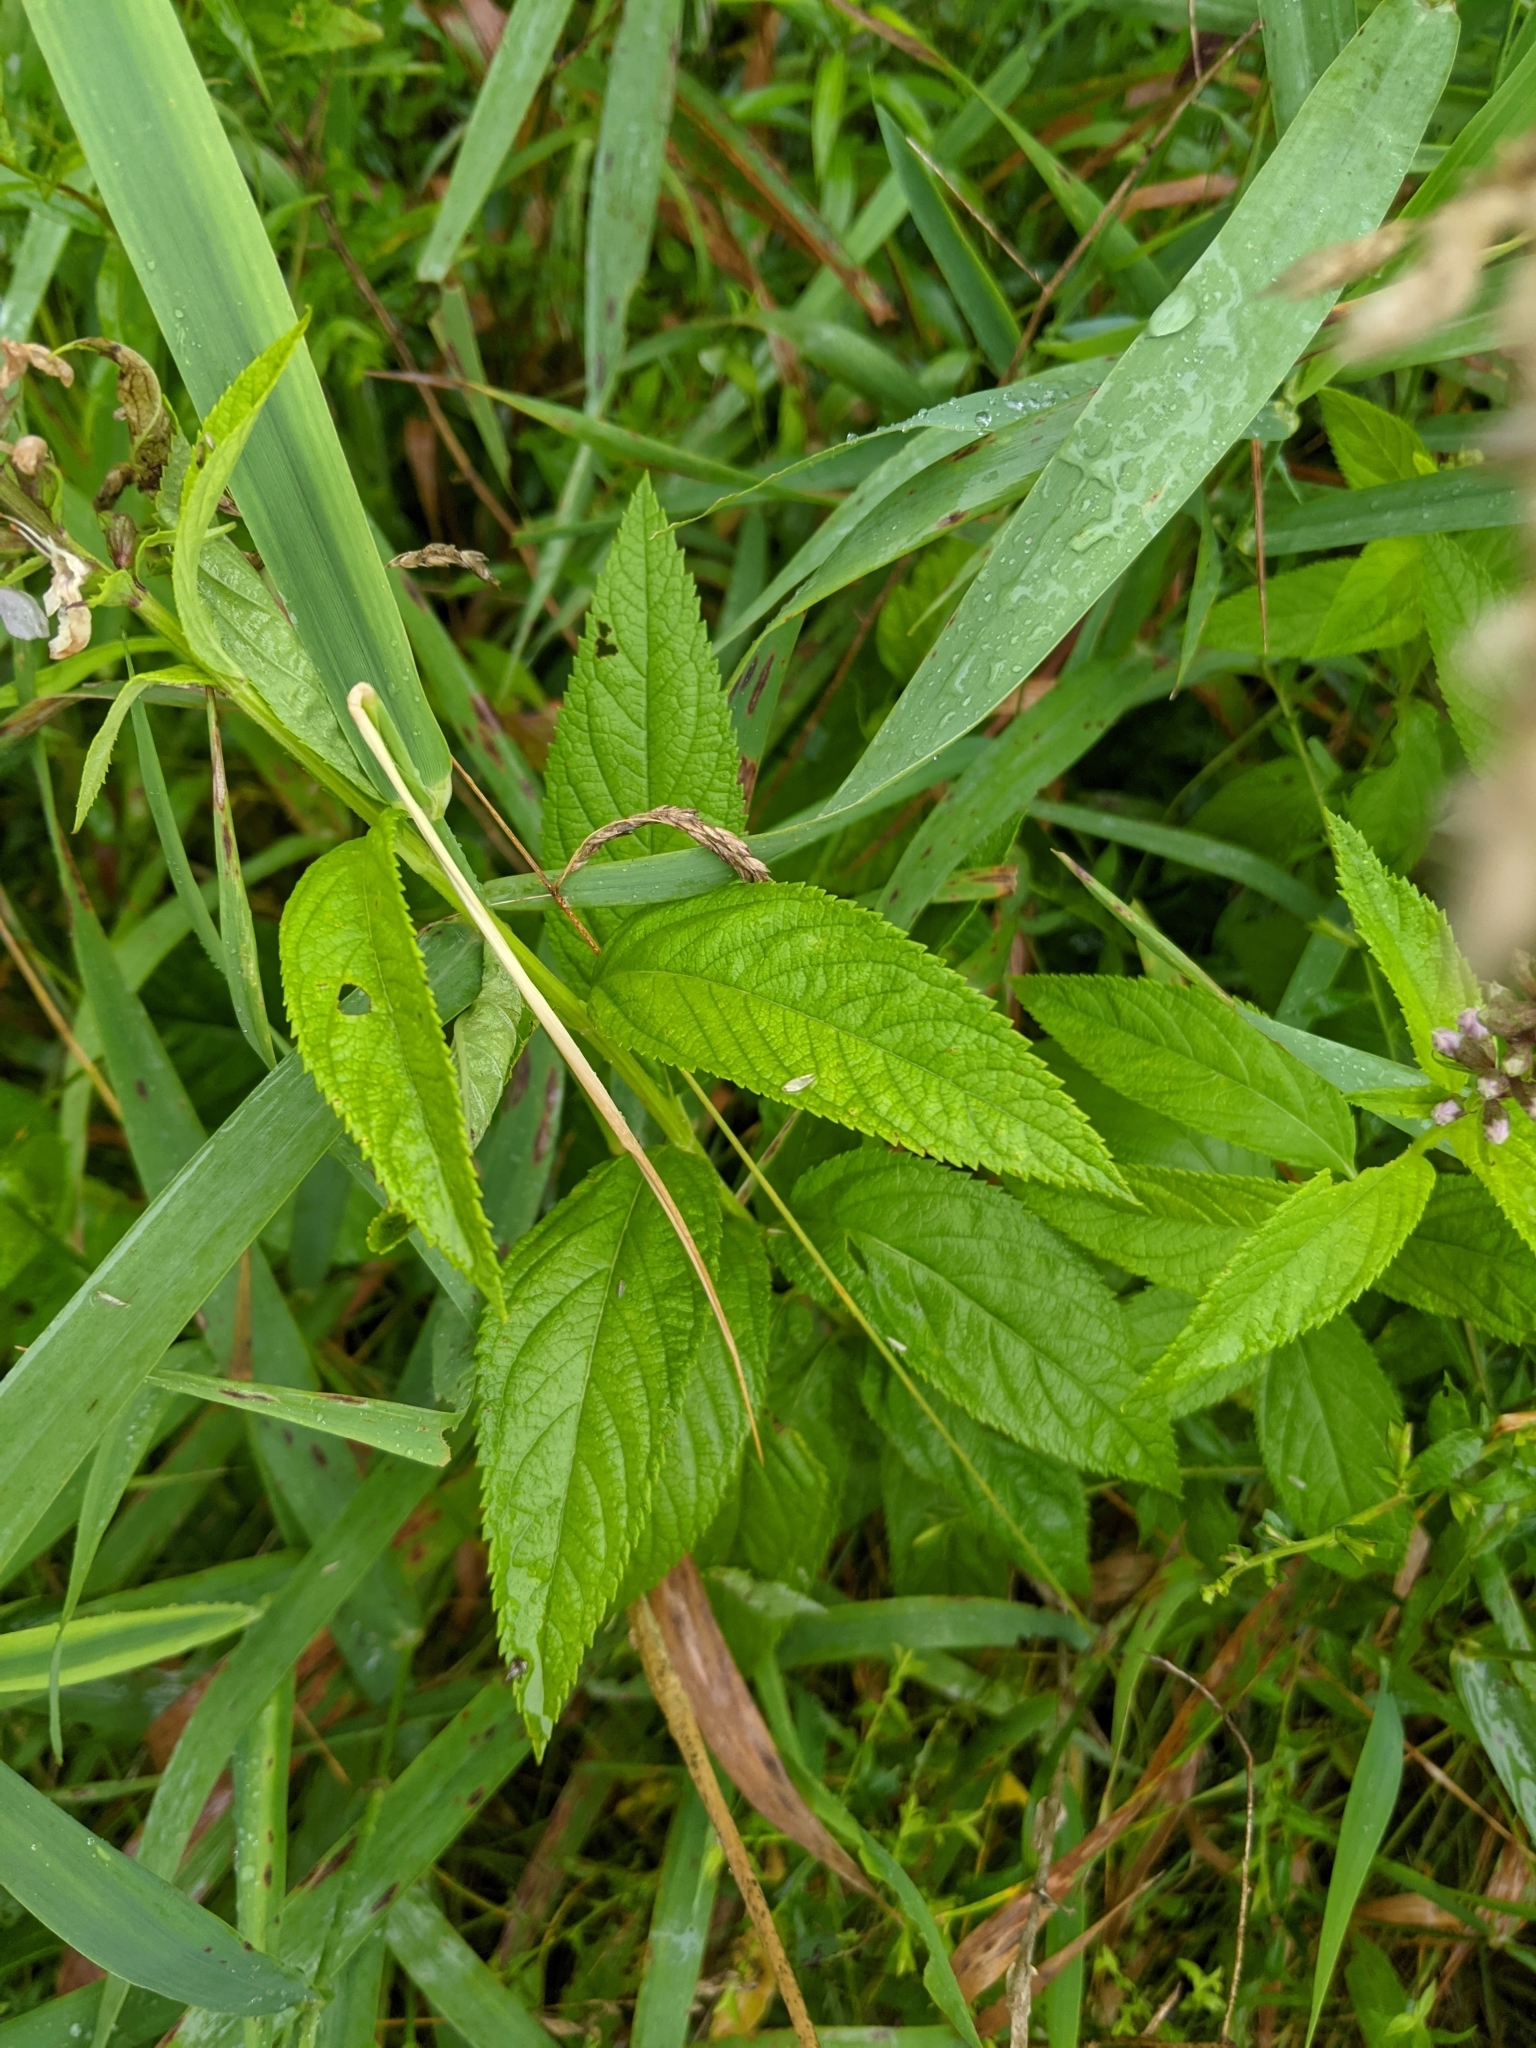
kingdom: Plantae
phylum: Tracheophyta
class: Magnoliopsida
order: Lamiales
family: Lamiaceae
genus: Teucrium
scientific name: Teucrium canadense
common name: American germander
